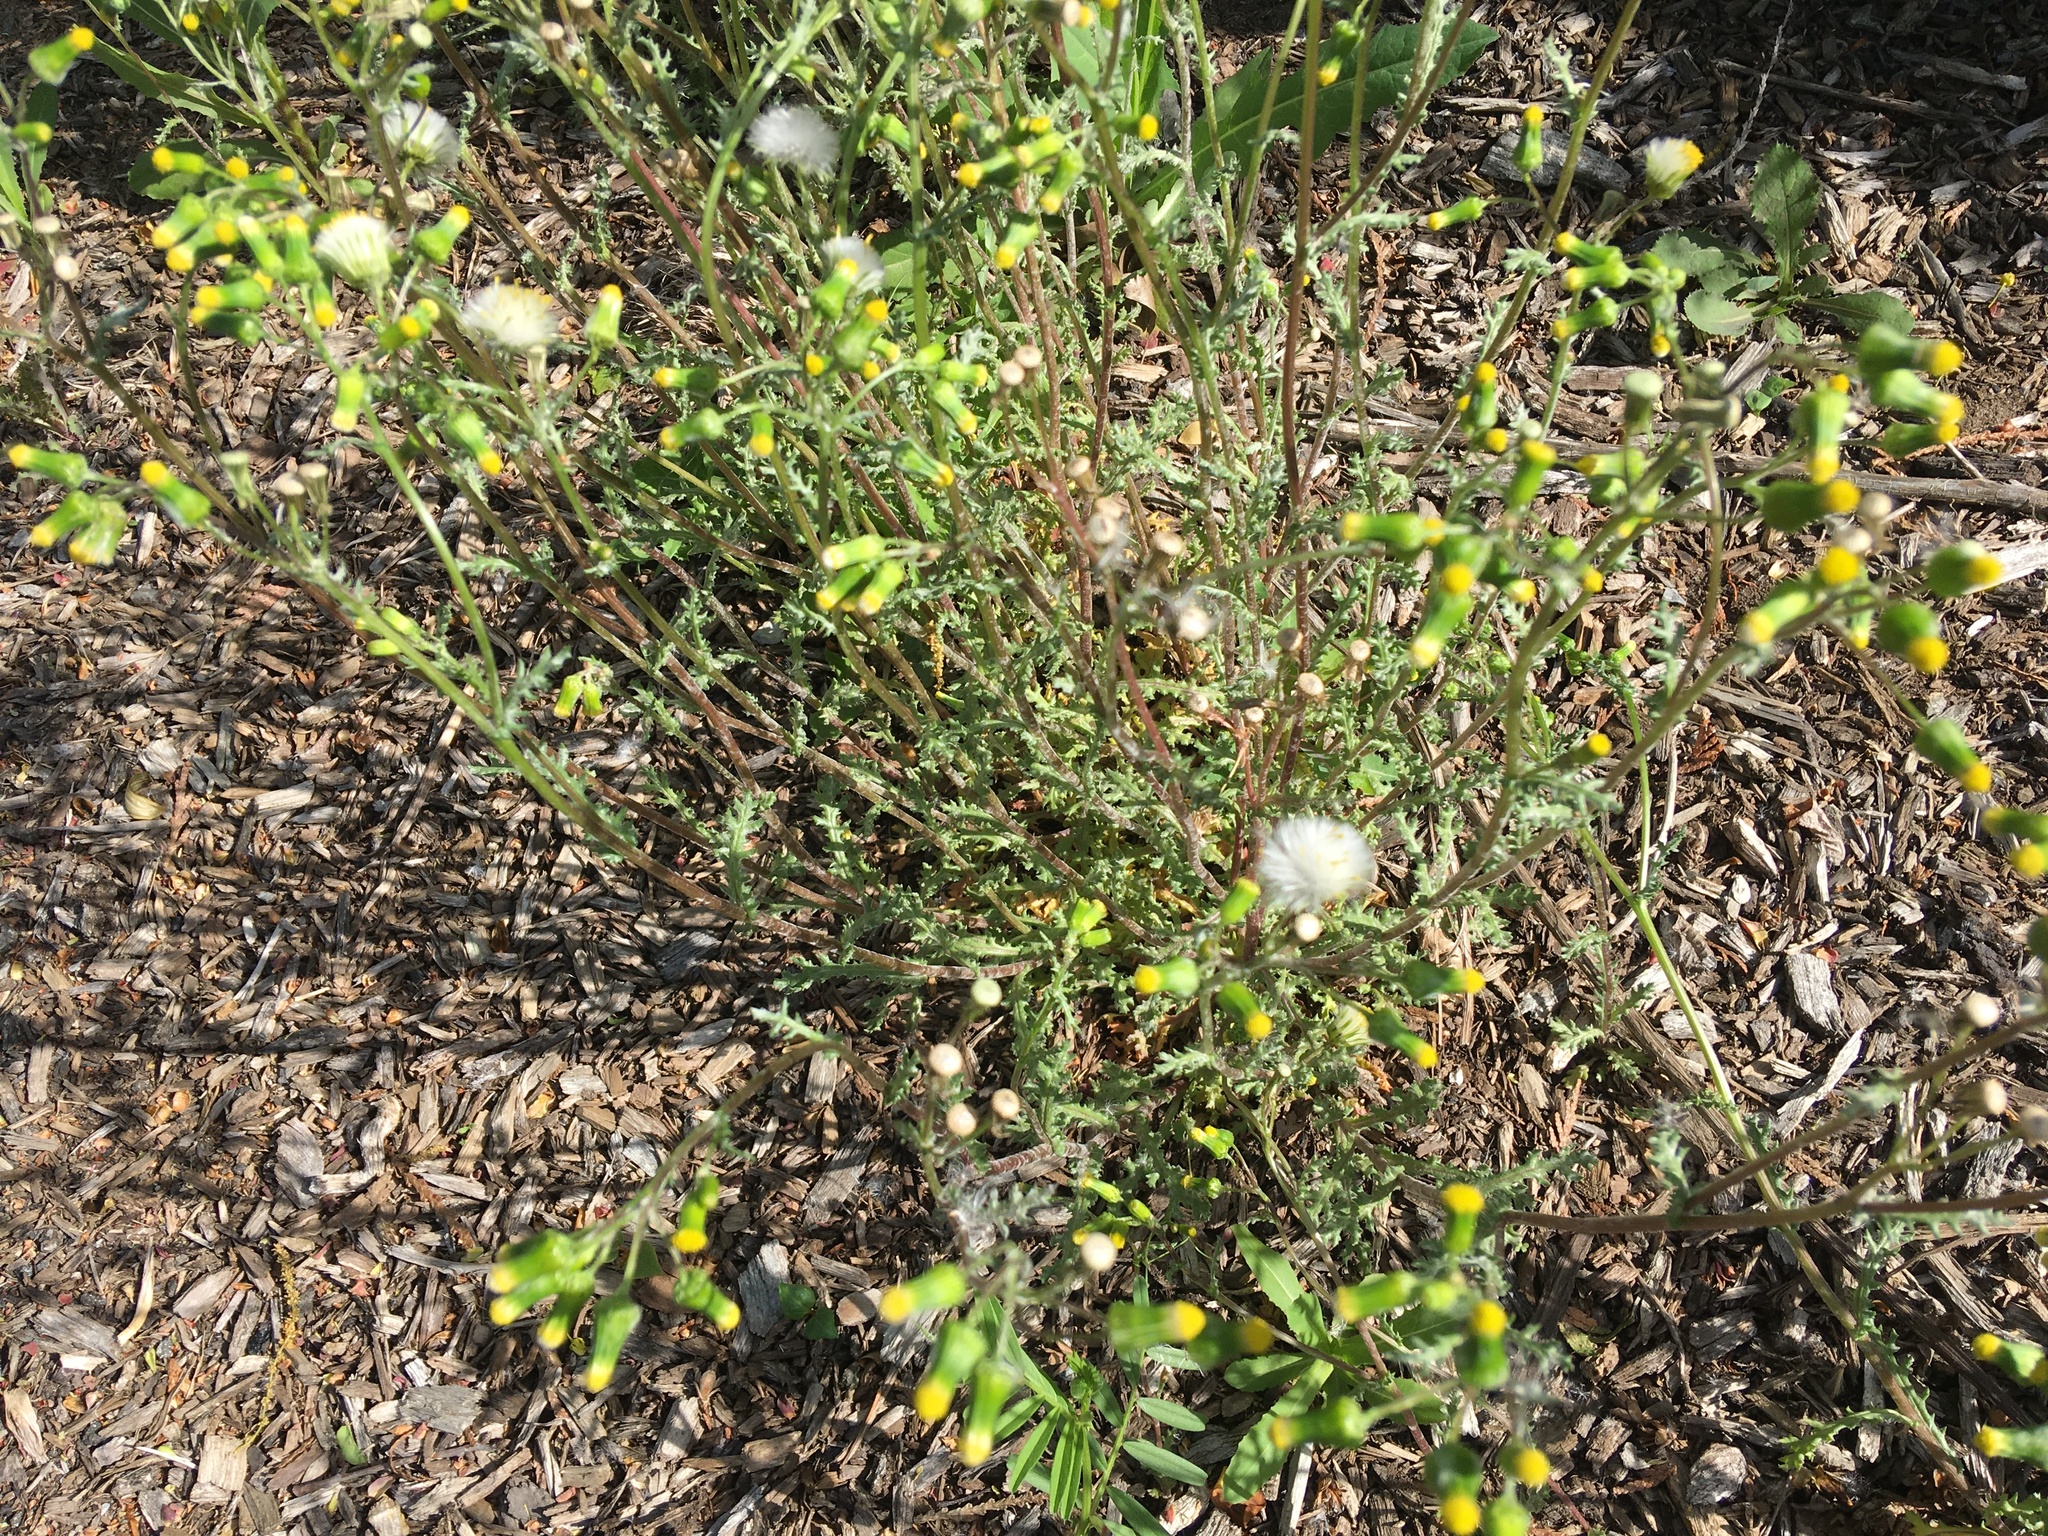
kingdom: Plantae
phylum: Tracheophyta
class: Magnoliopsida
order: Asterales
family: Asteraceae
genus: Senecio
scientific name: Senecio vulgaris
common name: Old-man-in-the-spring
